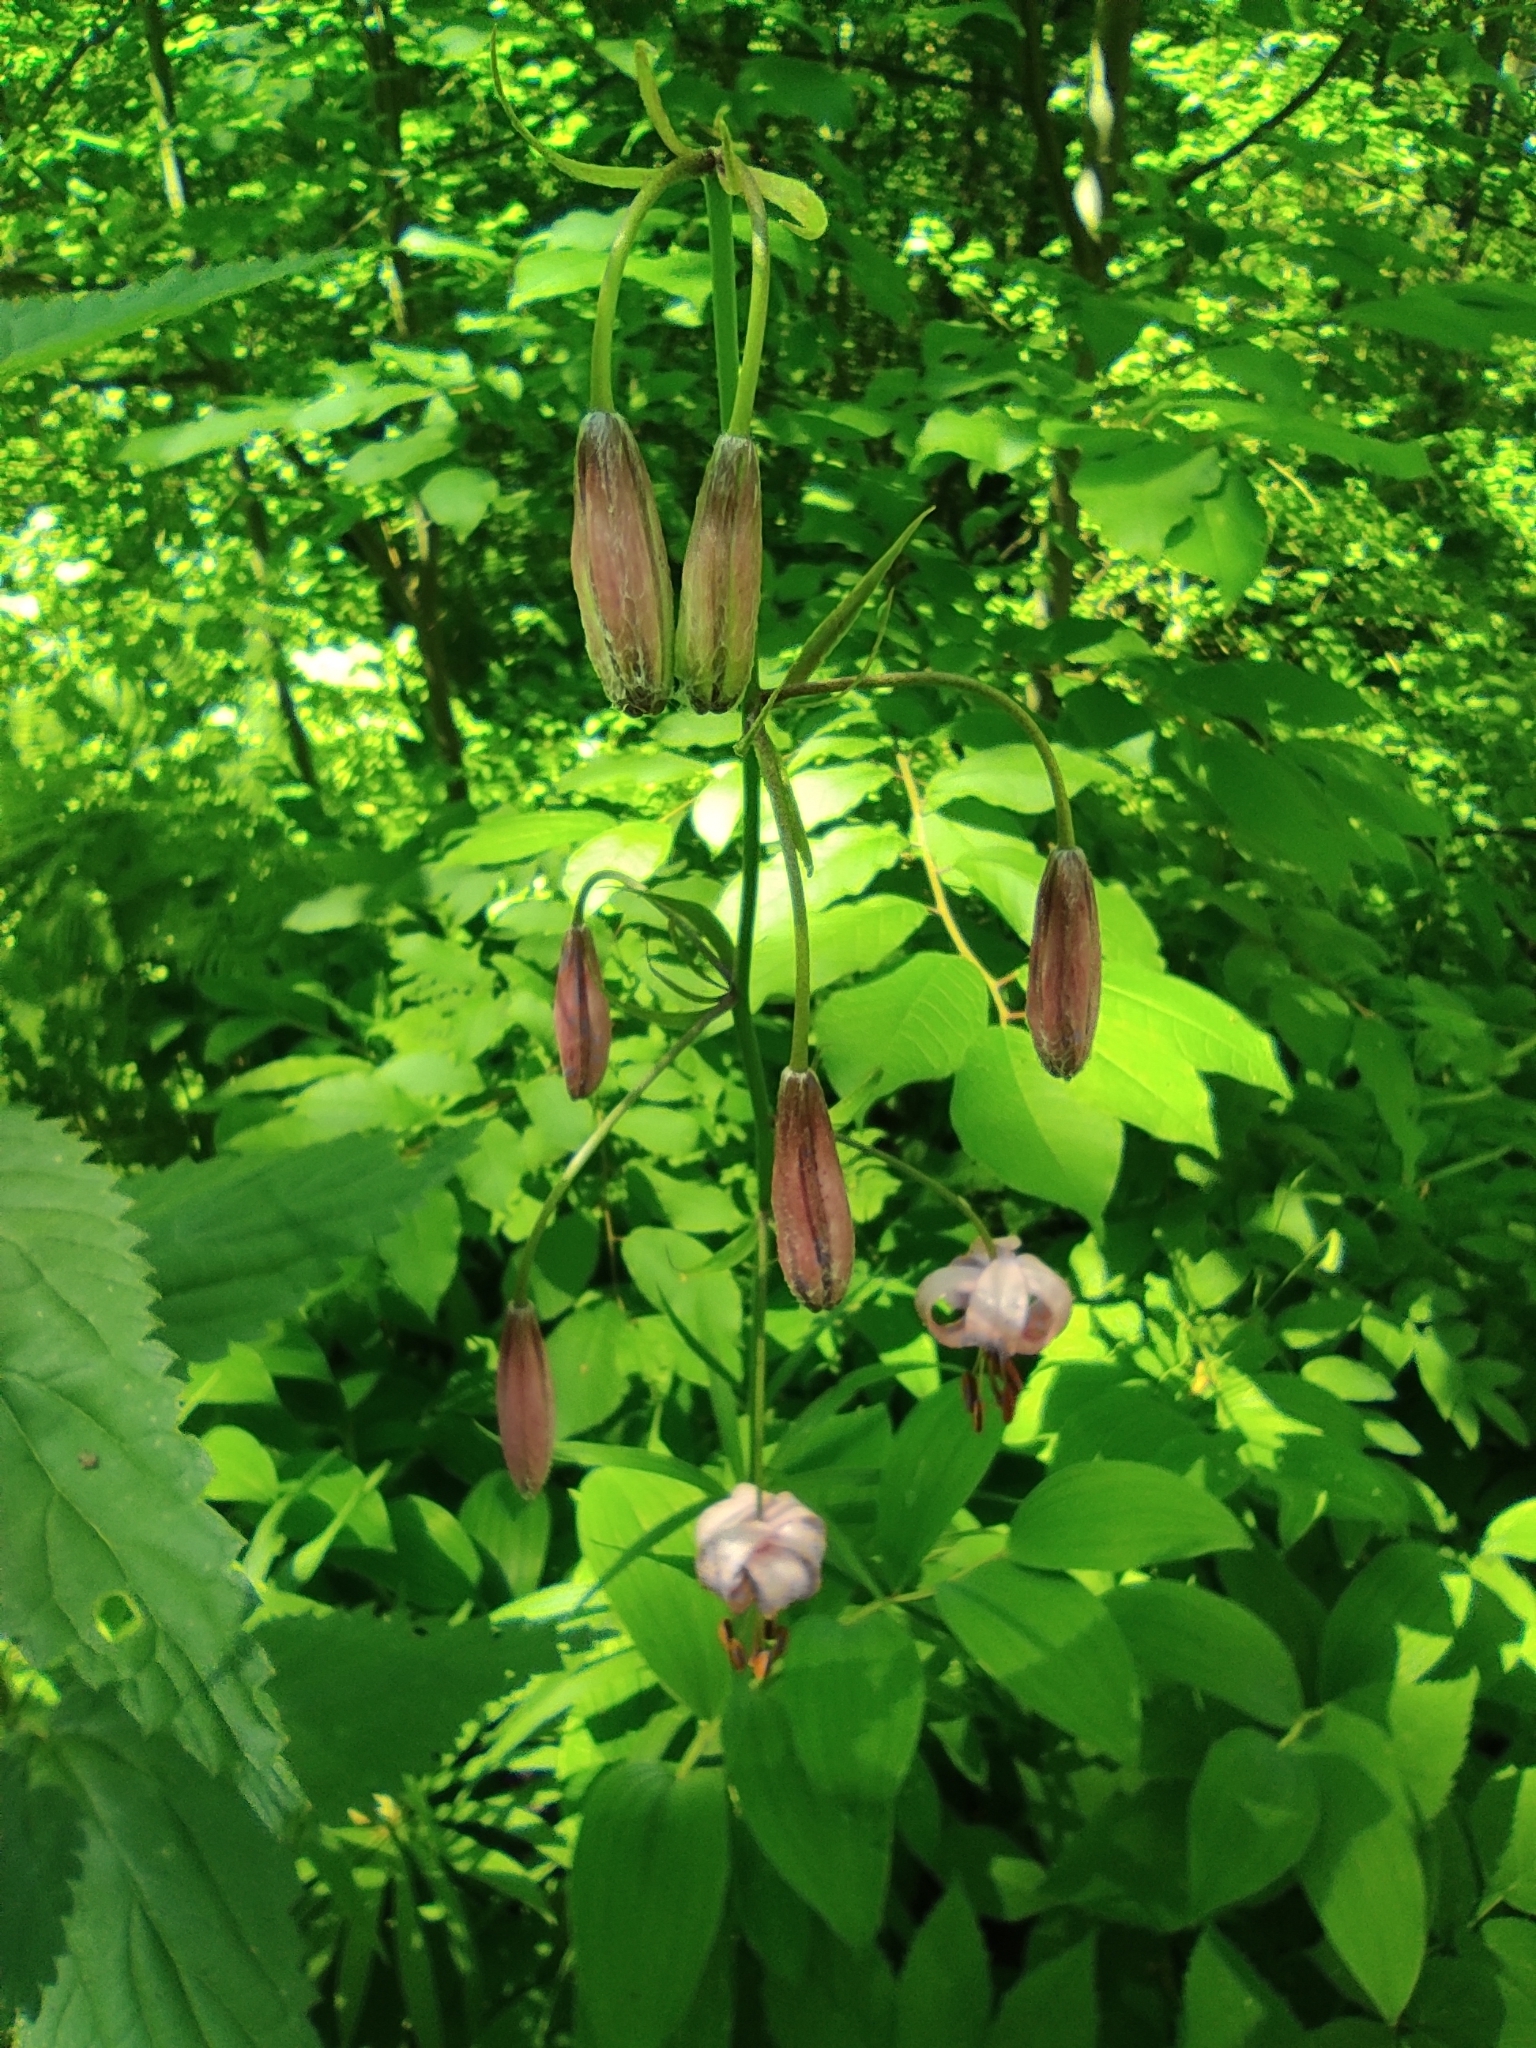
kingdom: Plantae
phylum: Tracheophyta
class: Liliopsida
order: Liliales
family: Liliaceae
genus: Lilium
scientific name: Lilium martagon
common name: Martagon lily
